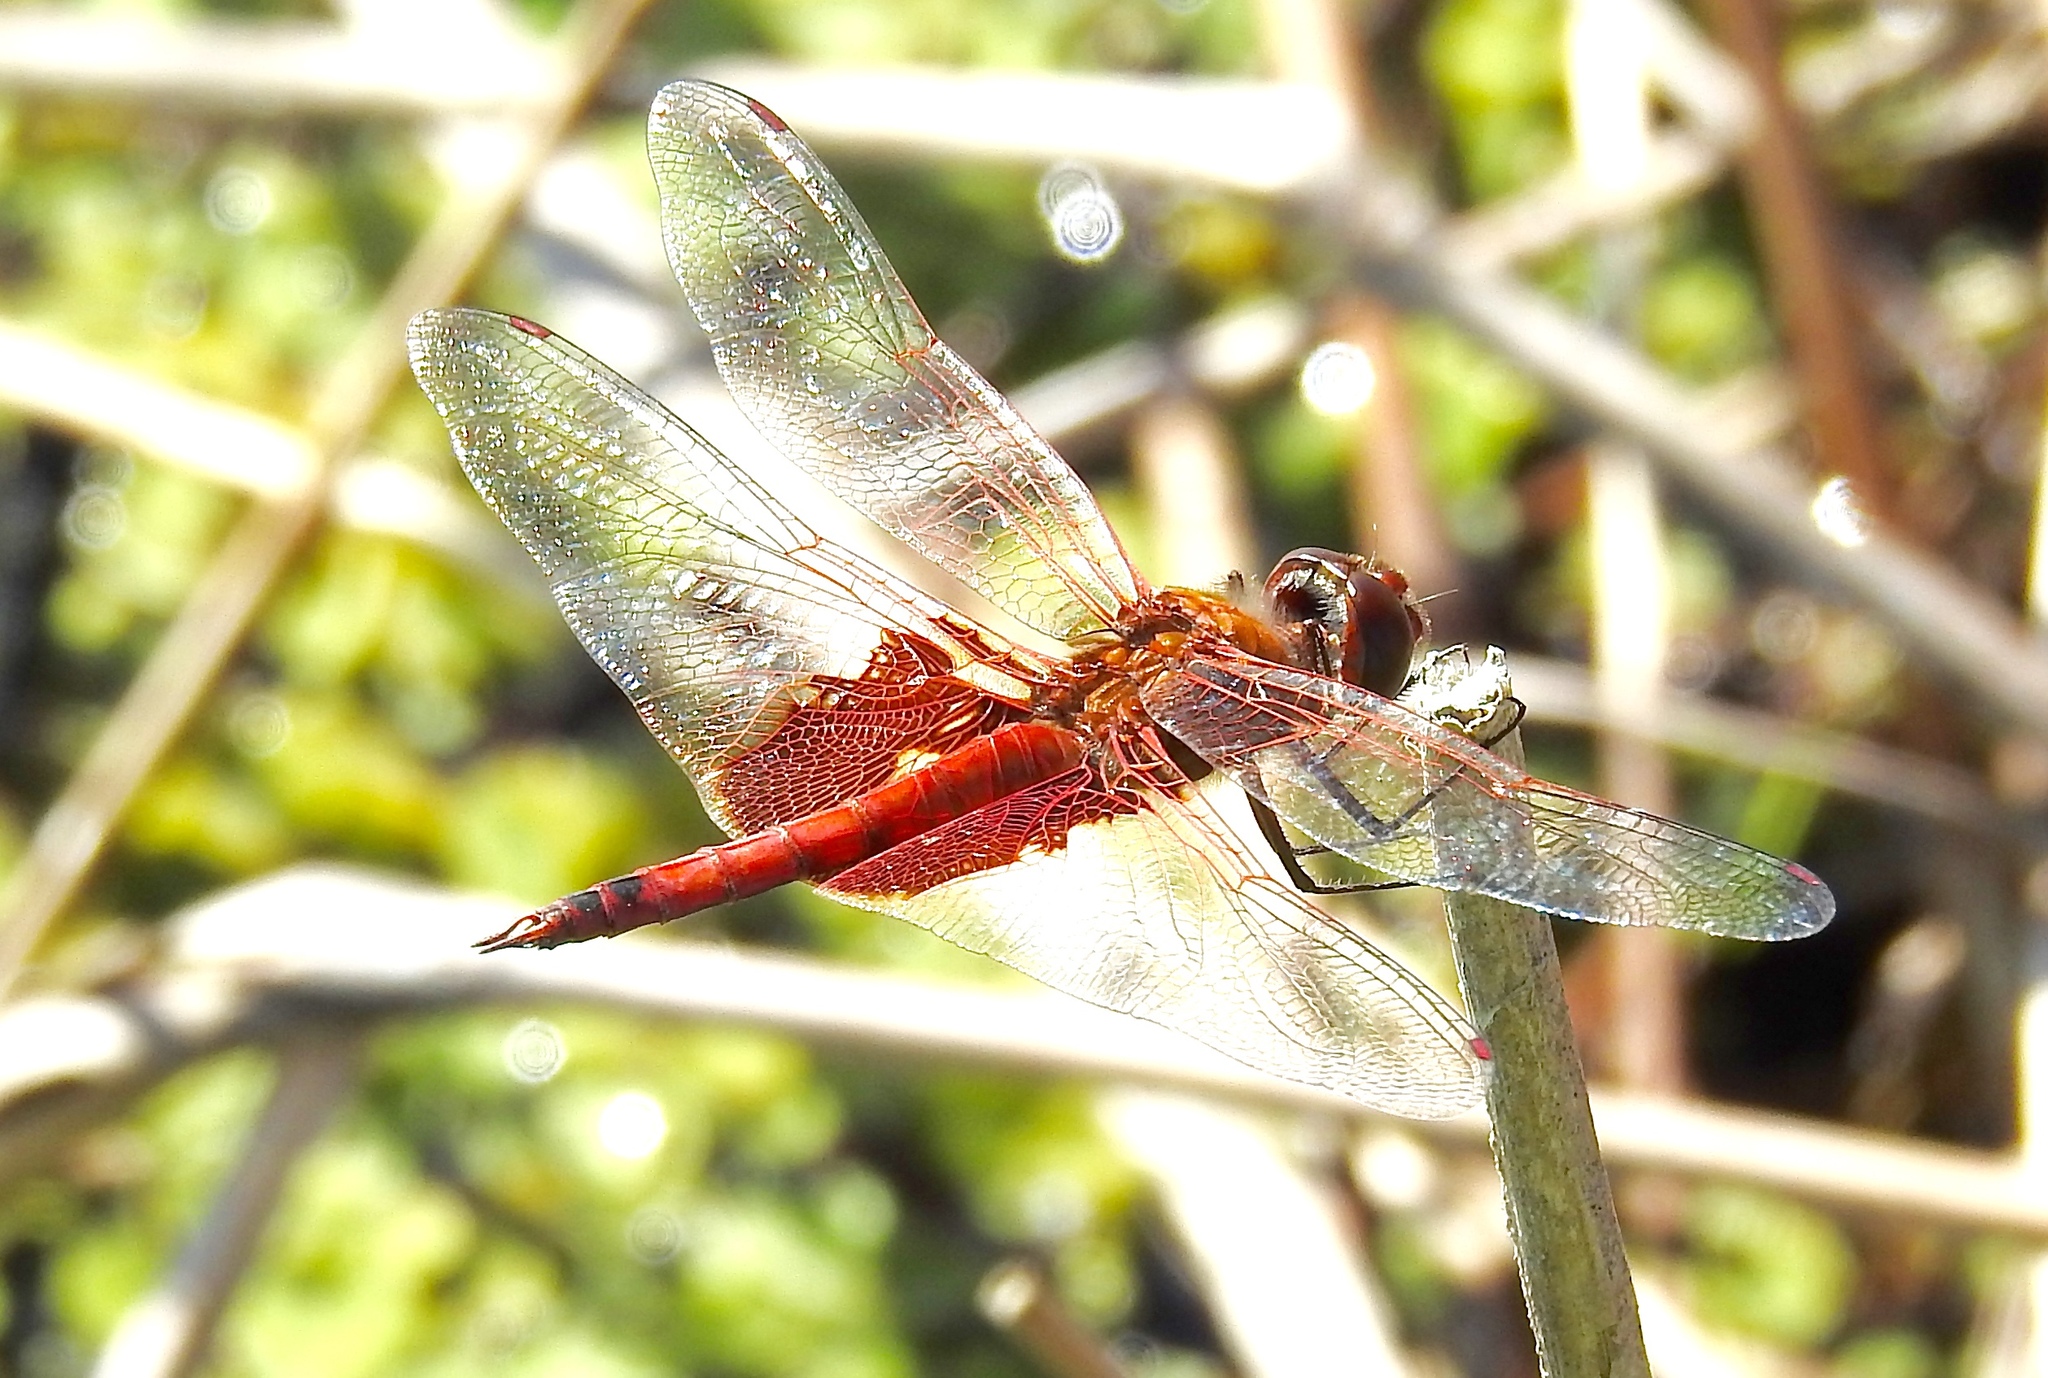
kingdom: Animalia
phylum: Arthropoda
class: Insecta
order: Odonata
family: Libellulidae
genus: Tramea
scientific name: Tramea onusta
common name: Red saddlebags
